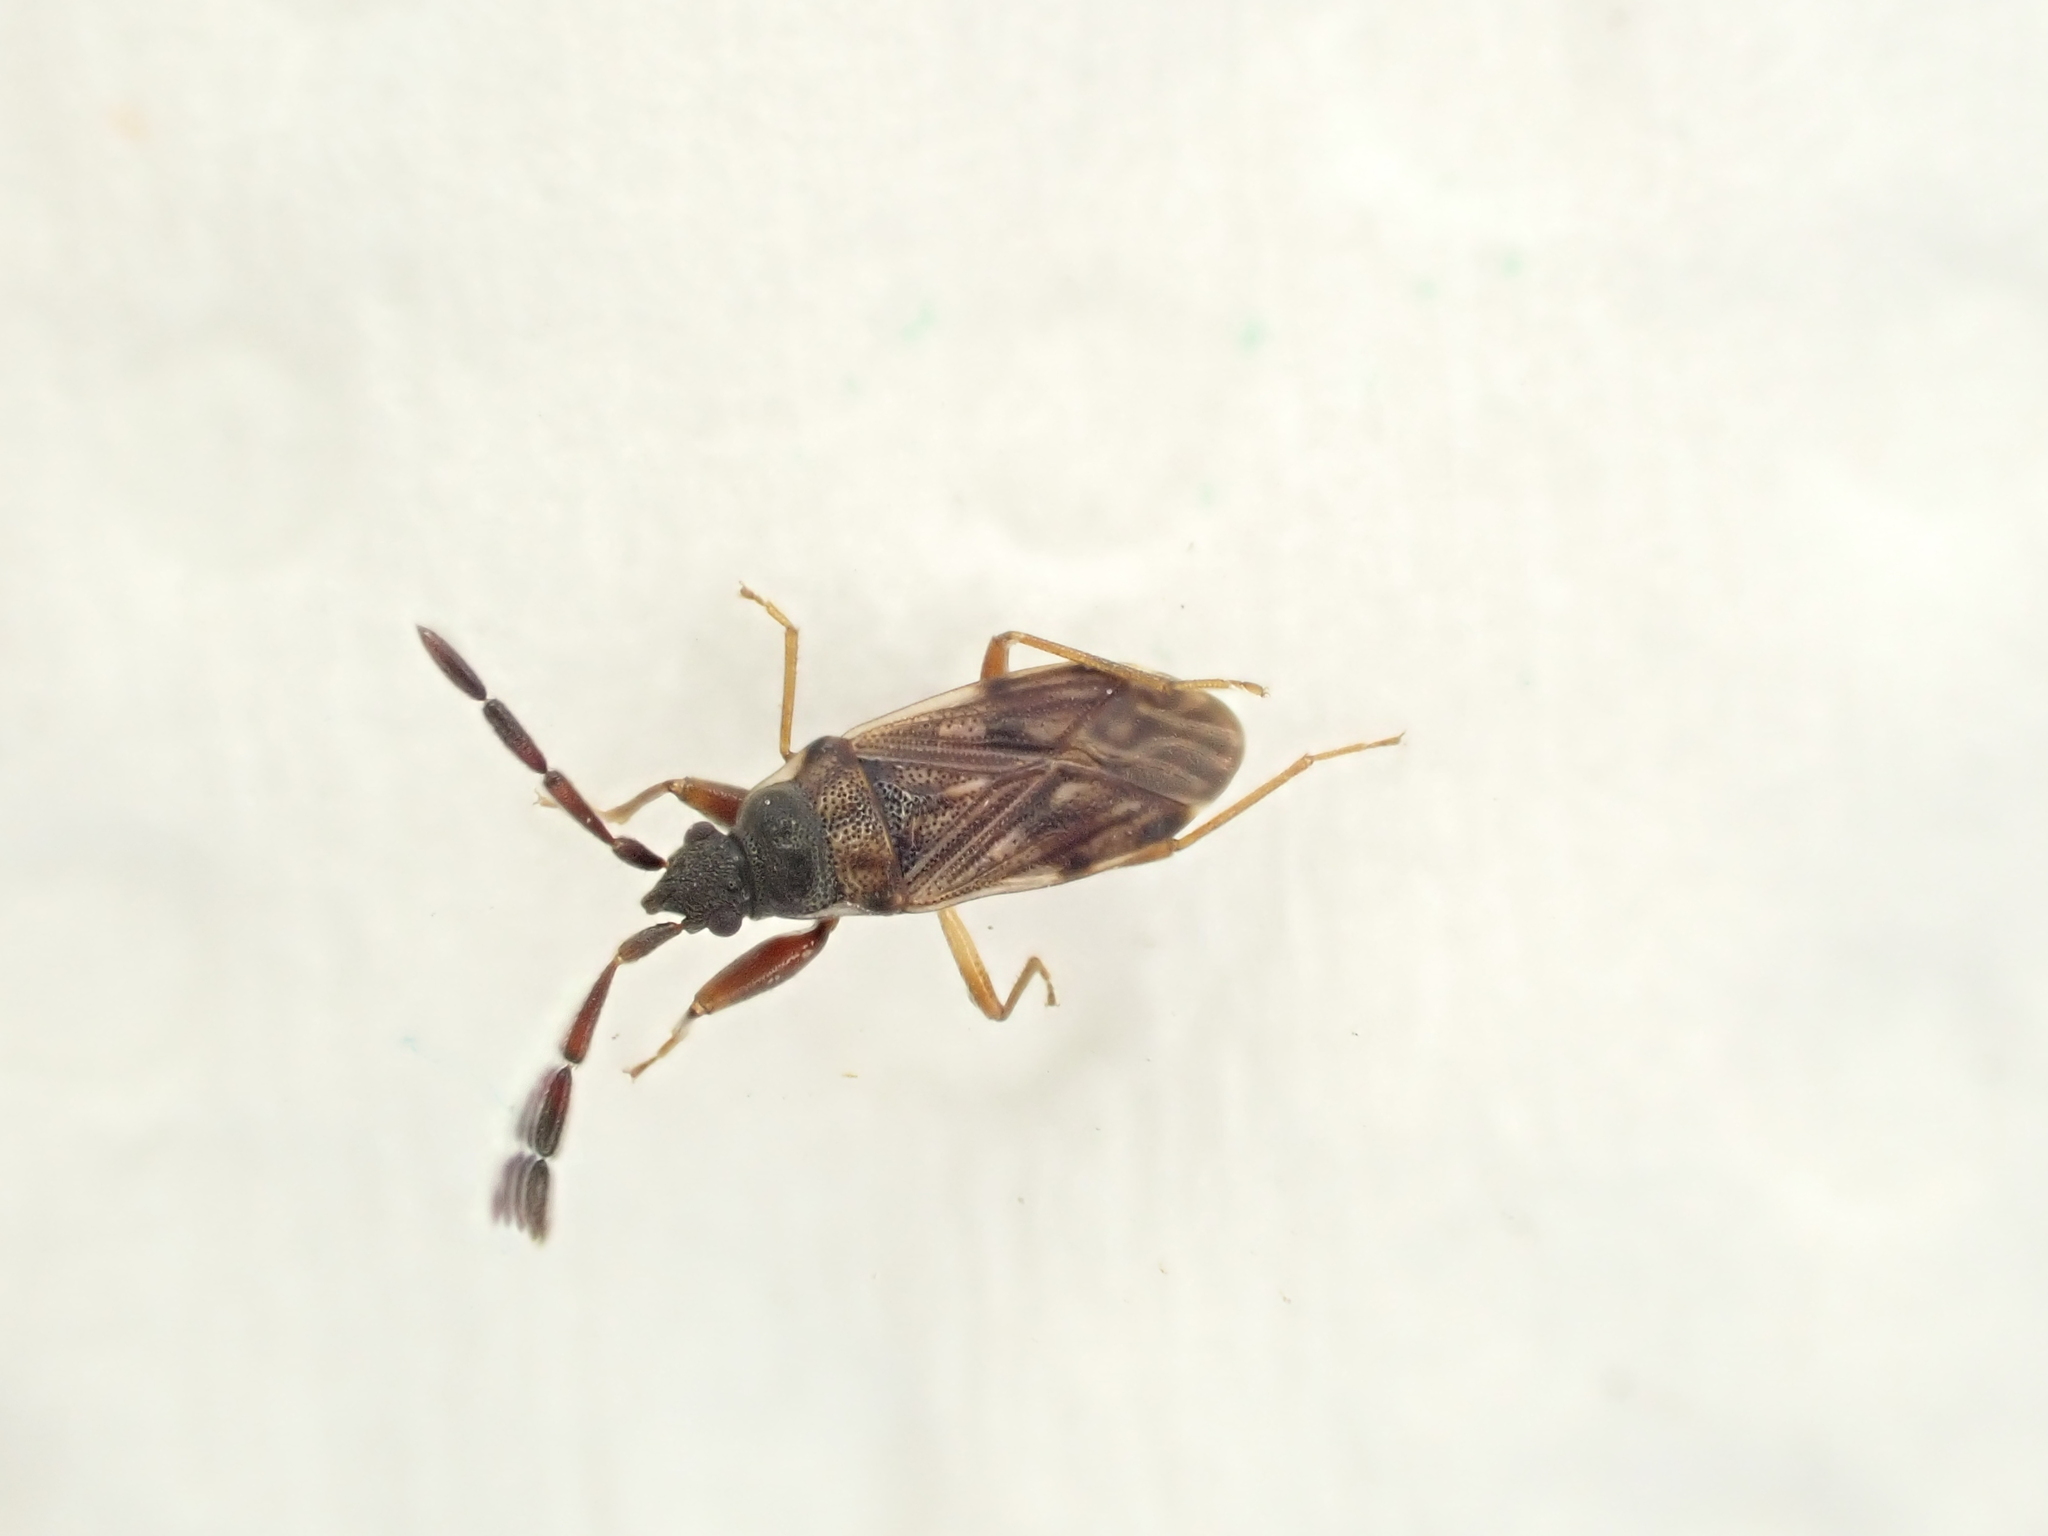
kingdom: Animalia
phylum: Arthropoda
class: Insecta
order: Hemiptera
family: Rhyparochromidae
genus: Brentiscerus
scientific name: Brentiscerus putoni
